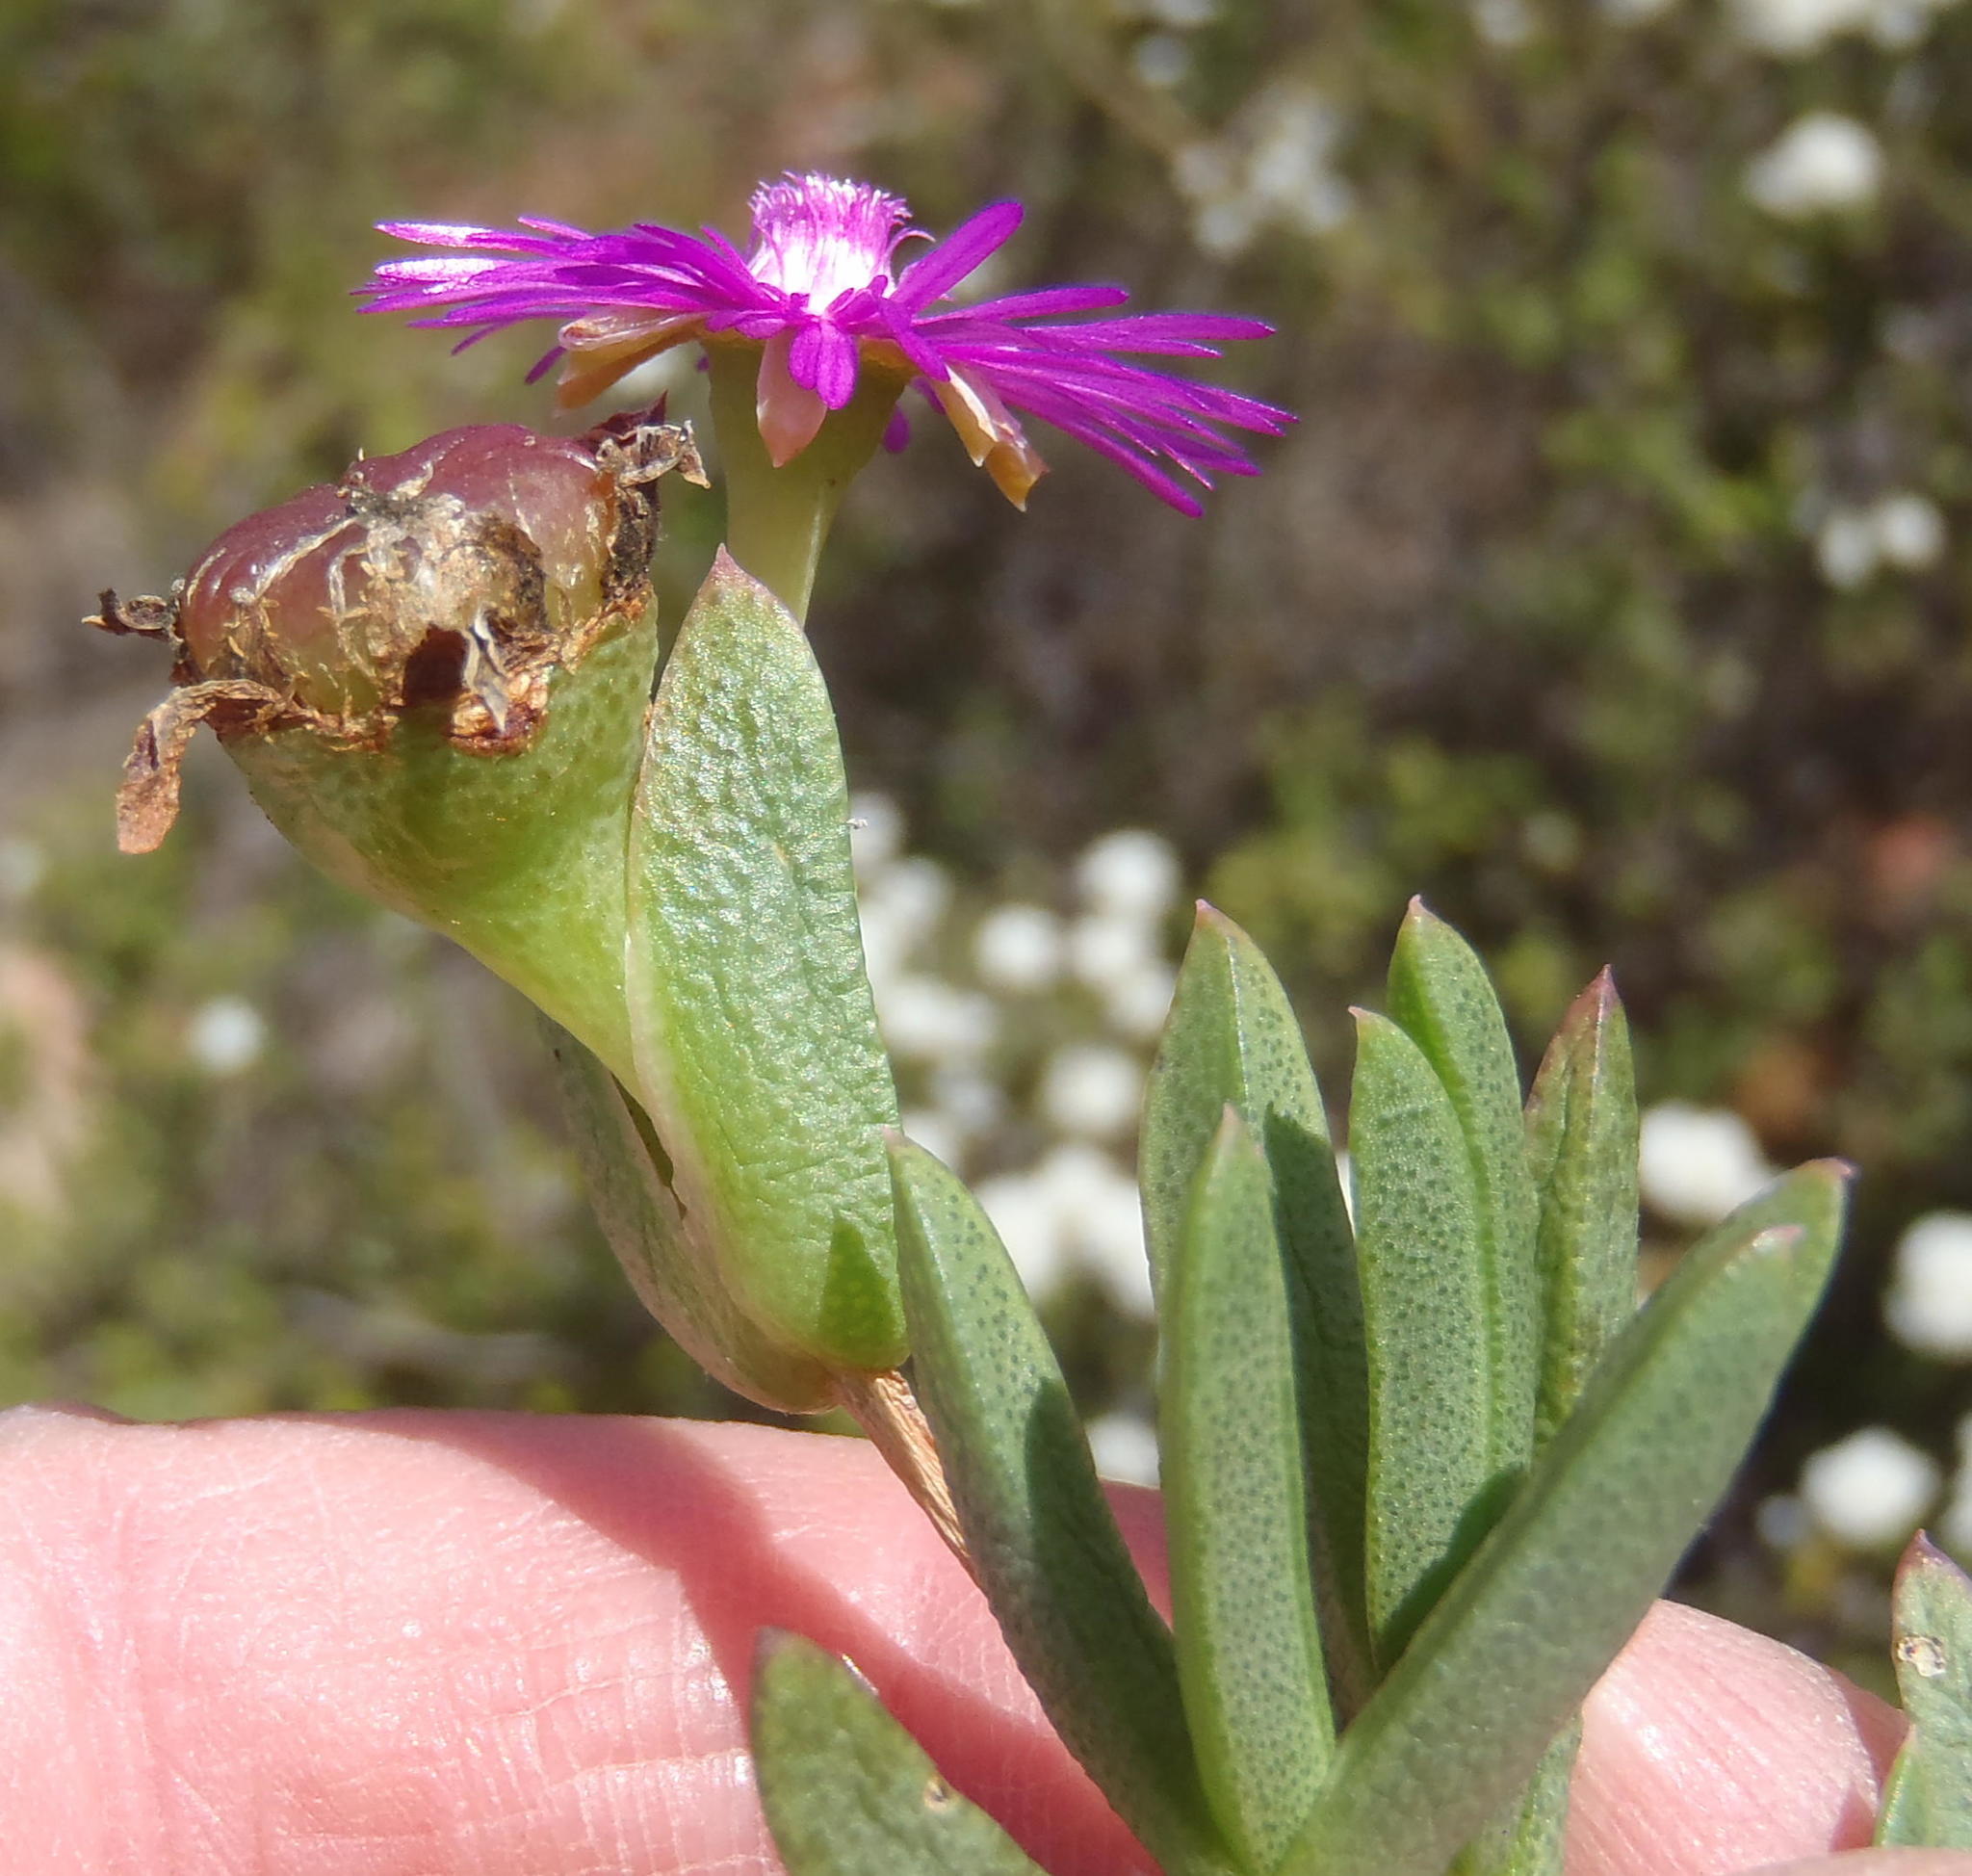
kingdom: Plantae
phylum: Tracheophyta
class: Magnoliopsida
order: Caryophyllales
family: Aizoaceae
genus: Esterhuysenia
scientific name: Esterhuysenia knysnana
